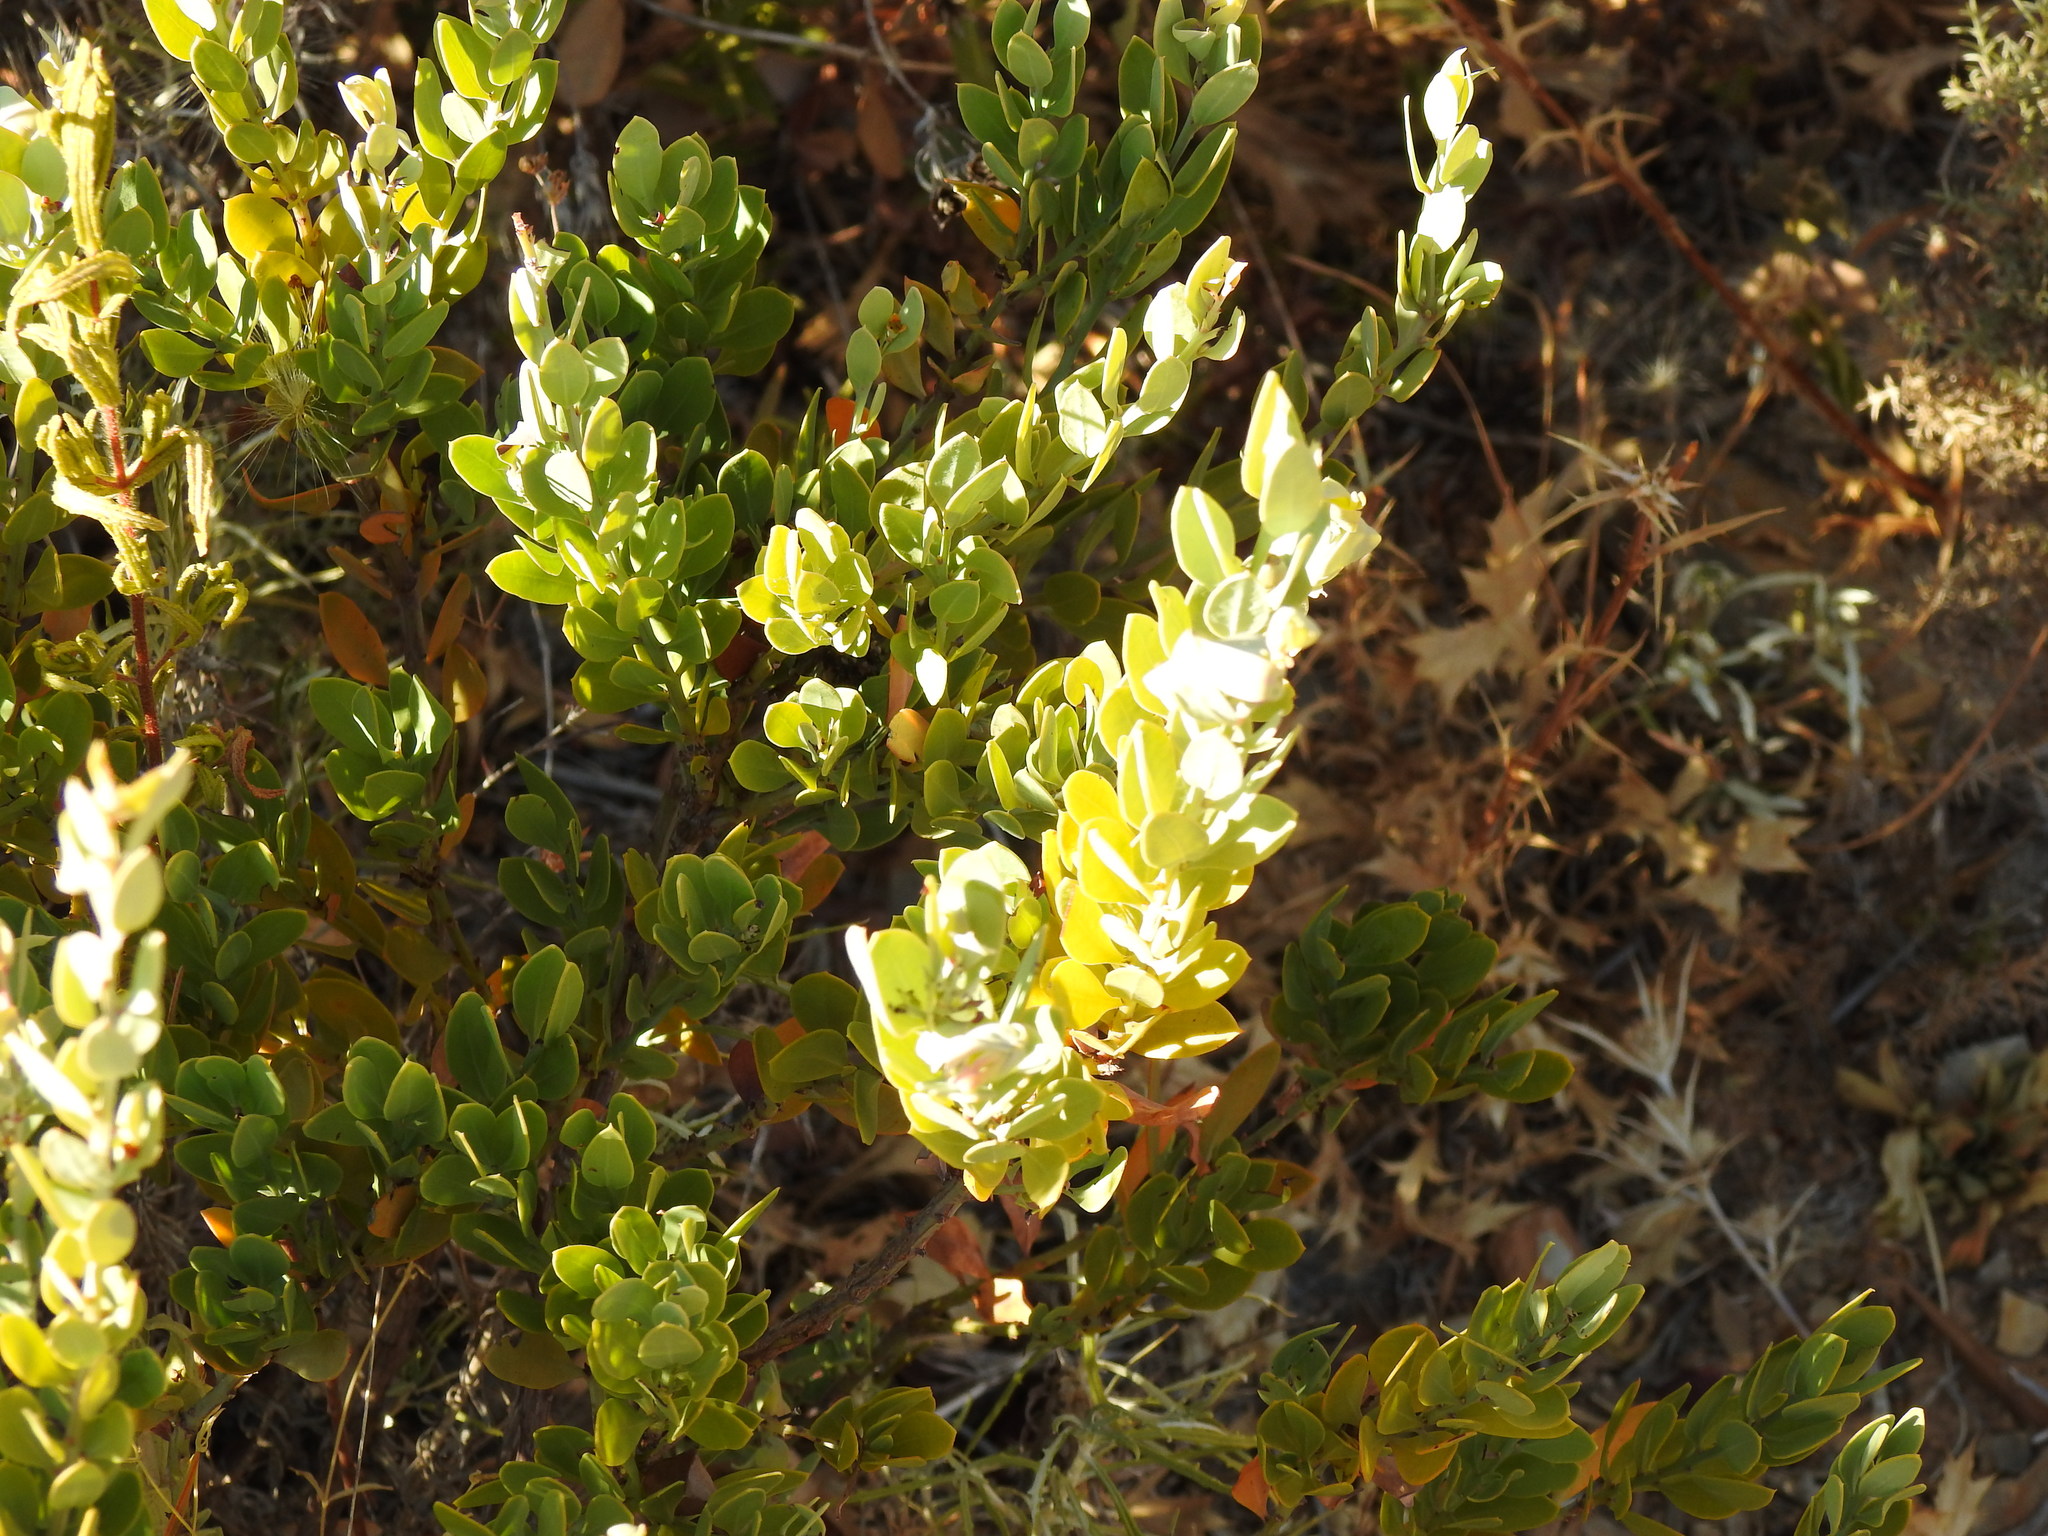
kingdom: Plantae
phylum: Tracheophyta
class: Magnoliopsida
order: Santalales
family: Santalaceae
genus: Osyris
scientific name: Osyris lanceolata
